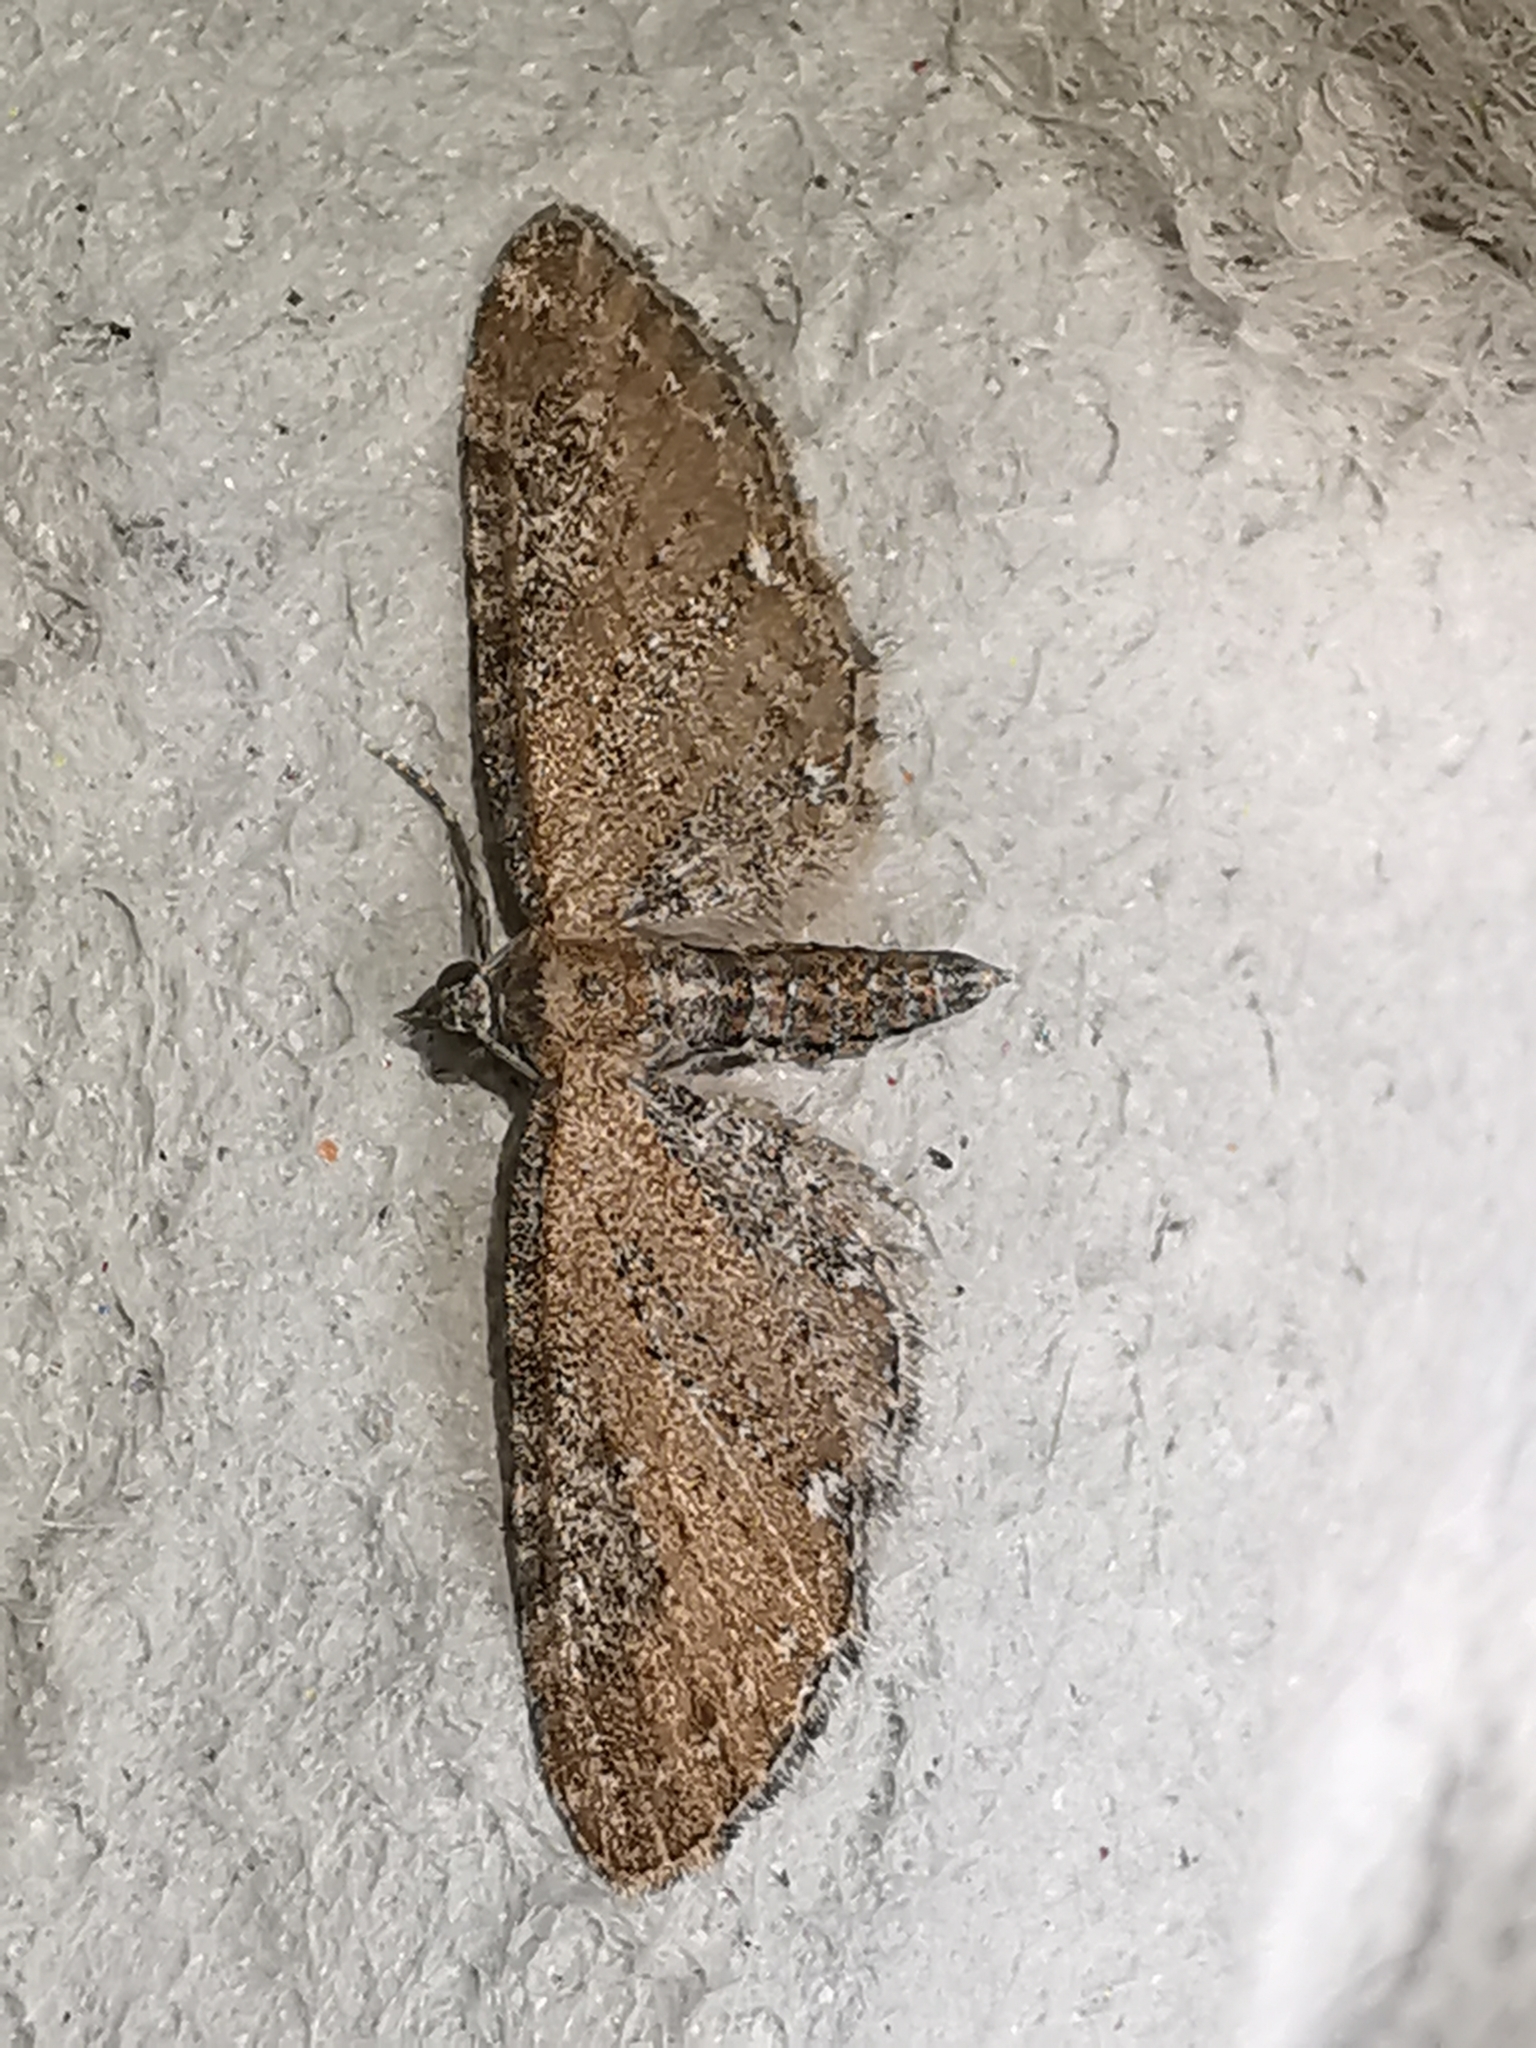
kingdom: Animalia
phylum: Arthropoda
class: Insecta
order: Lepidoptera
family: Geometridae
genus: Eupithecia
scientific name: Eupithecia vulgata
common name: Common pug
